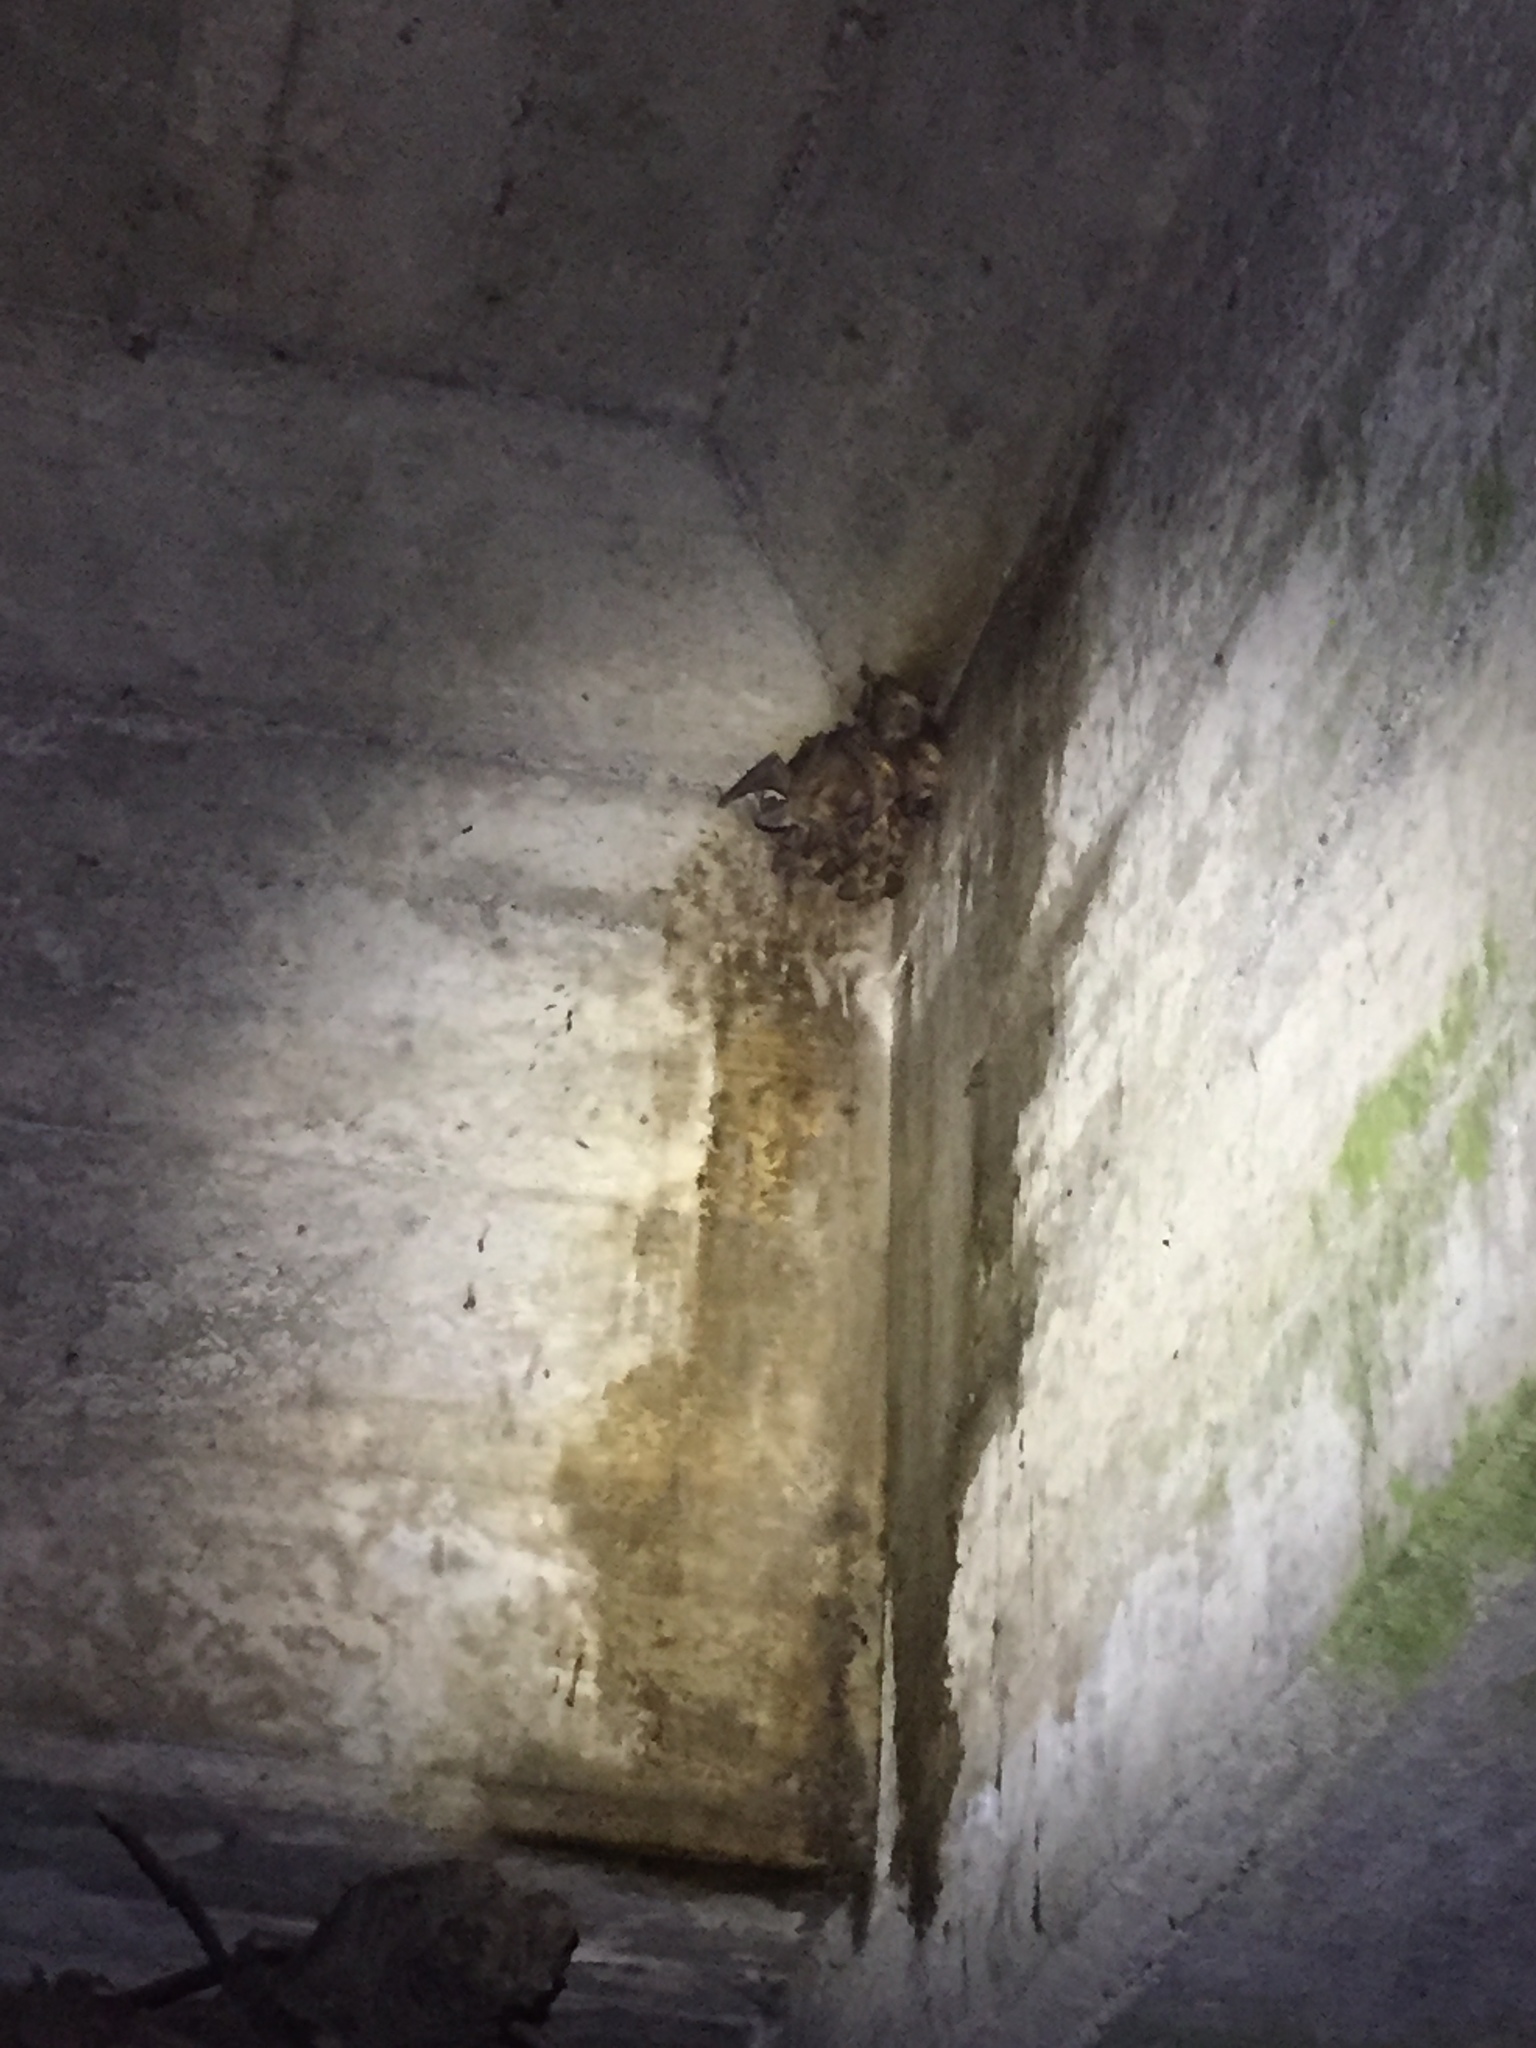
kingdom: Animalia
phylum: Chordata
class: Mammalia
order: Chiroptera
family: Vespertilionidae
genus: Antrozous
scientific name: Antrozous pallidus
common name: Pallid bat
